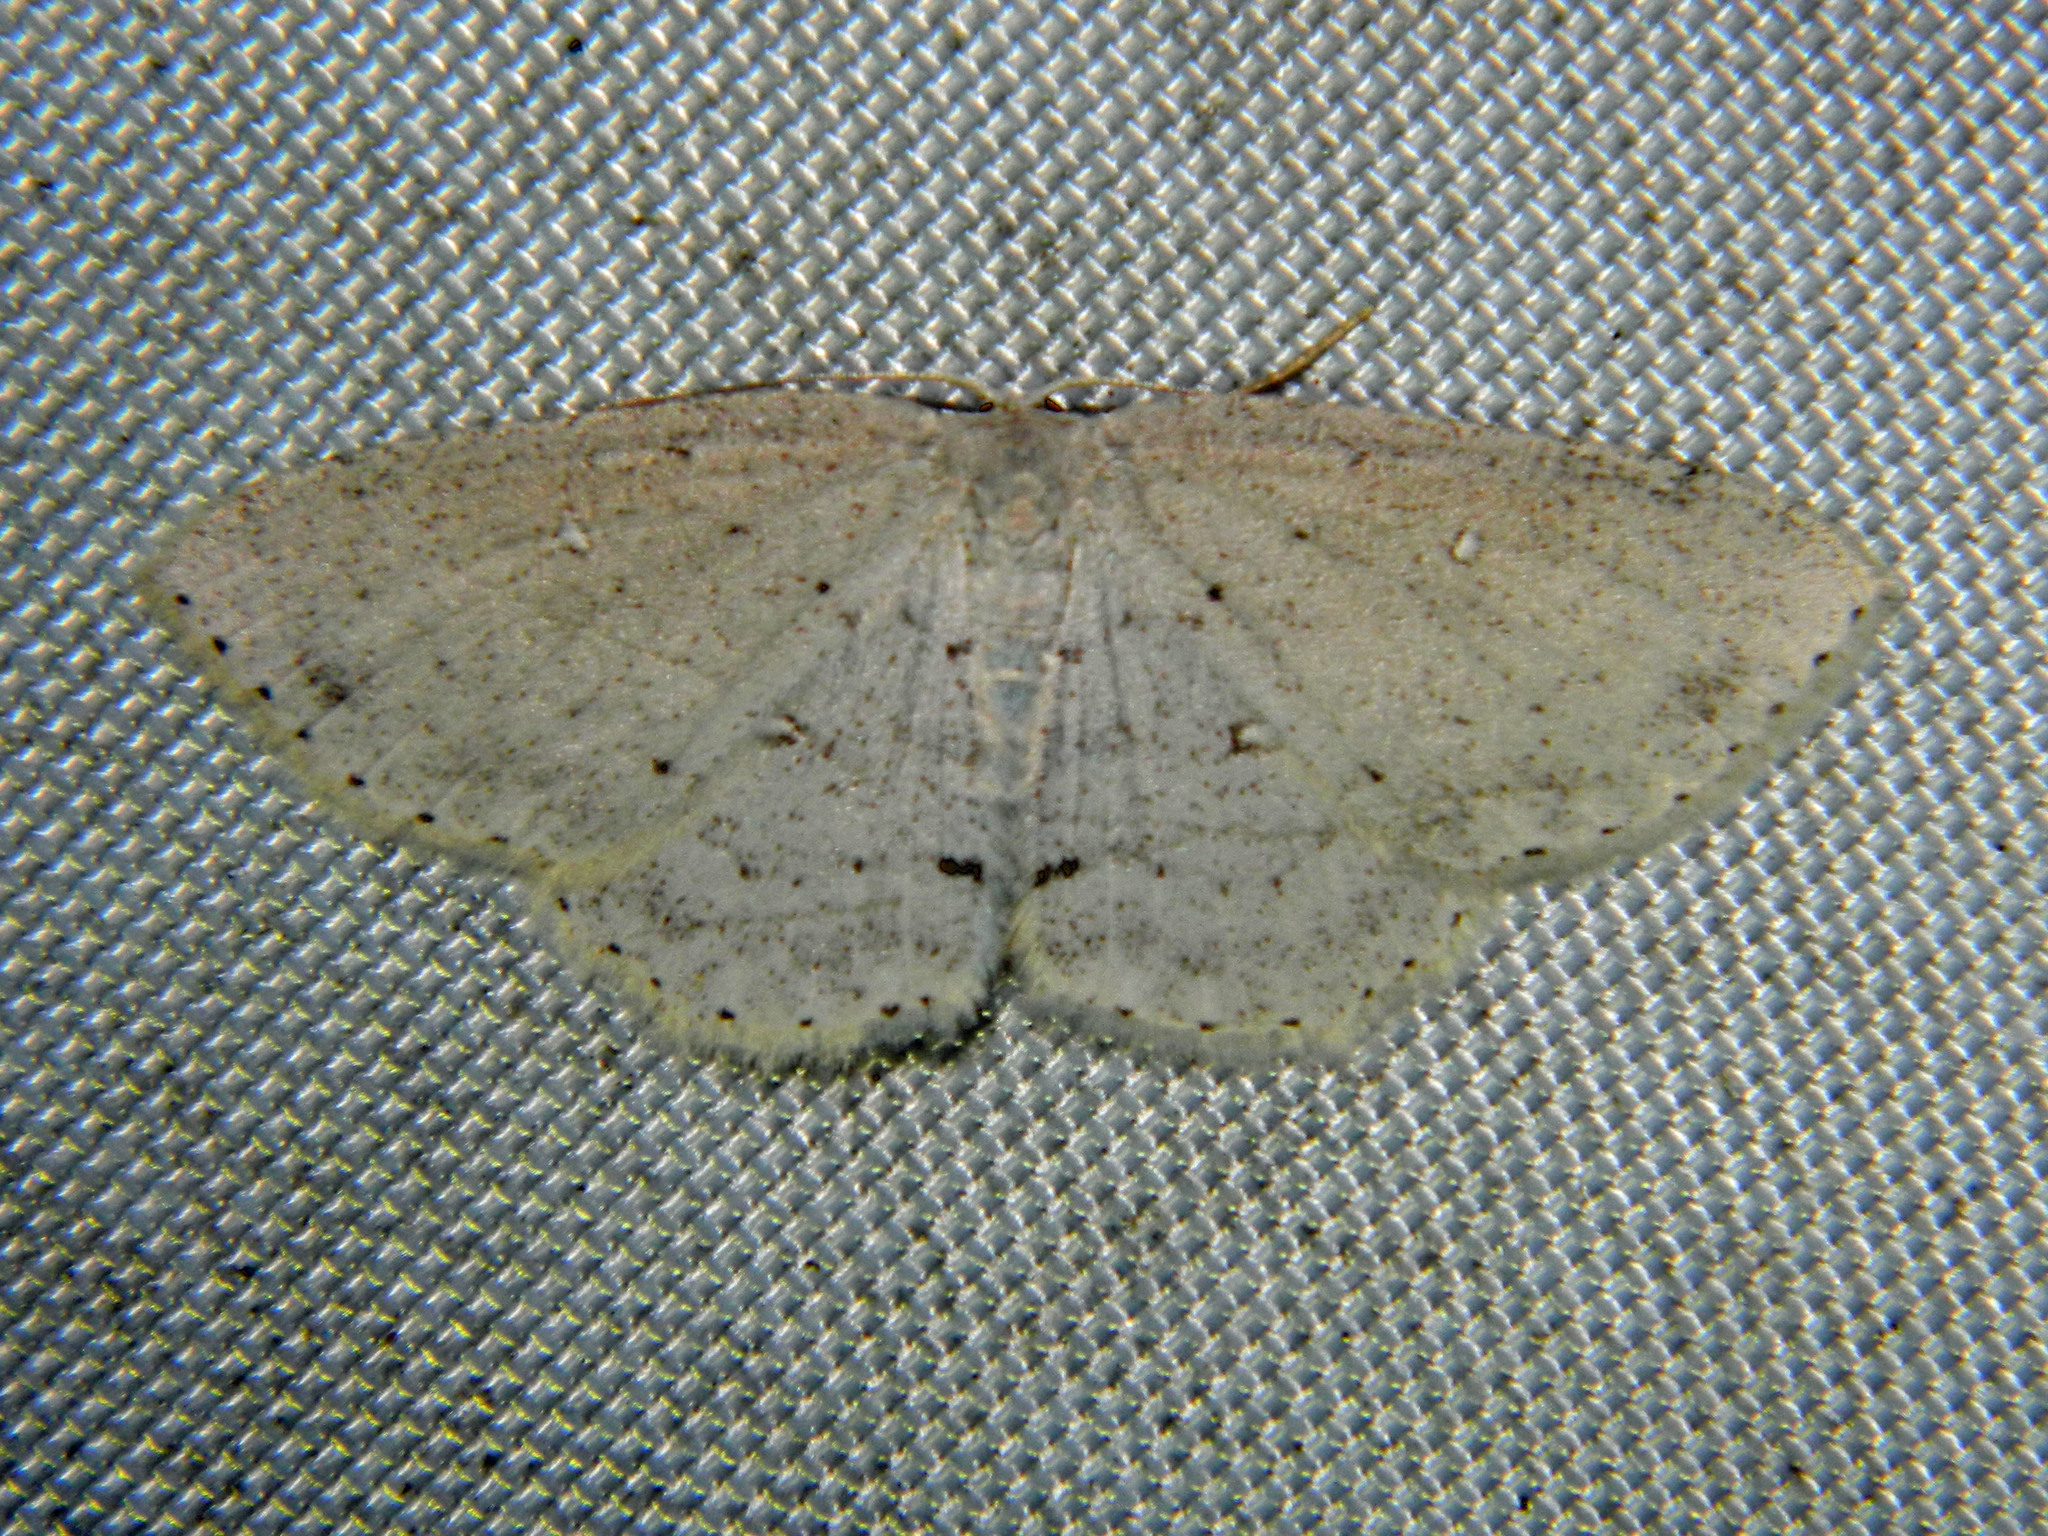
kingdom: Animalia
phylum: Arthropoda
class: Insecta
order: Lepidoptera
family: Geometridae
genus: Cyclophora
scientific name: Cyclophora pendulinaria
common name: Sweet fern geometer
